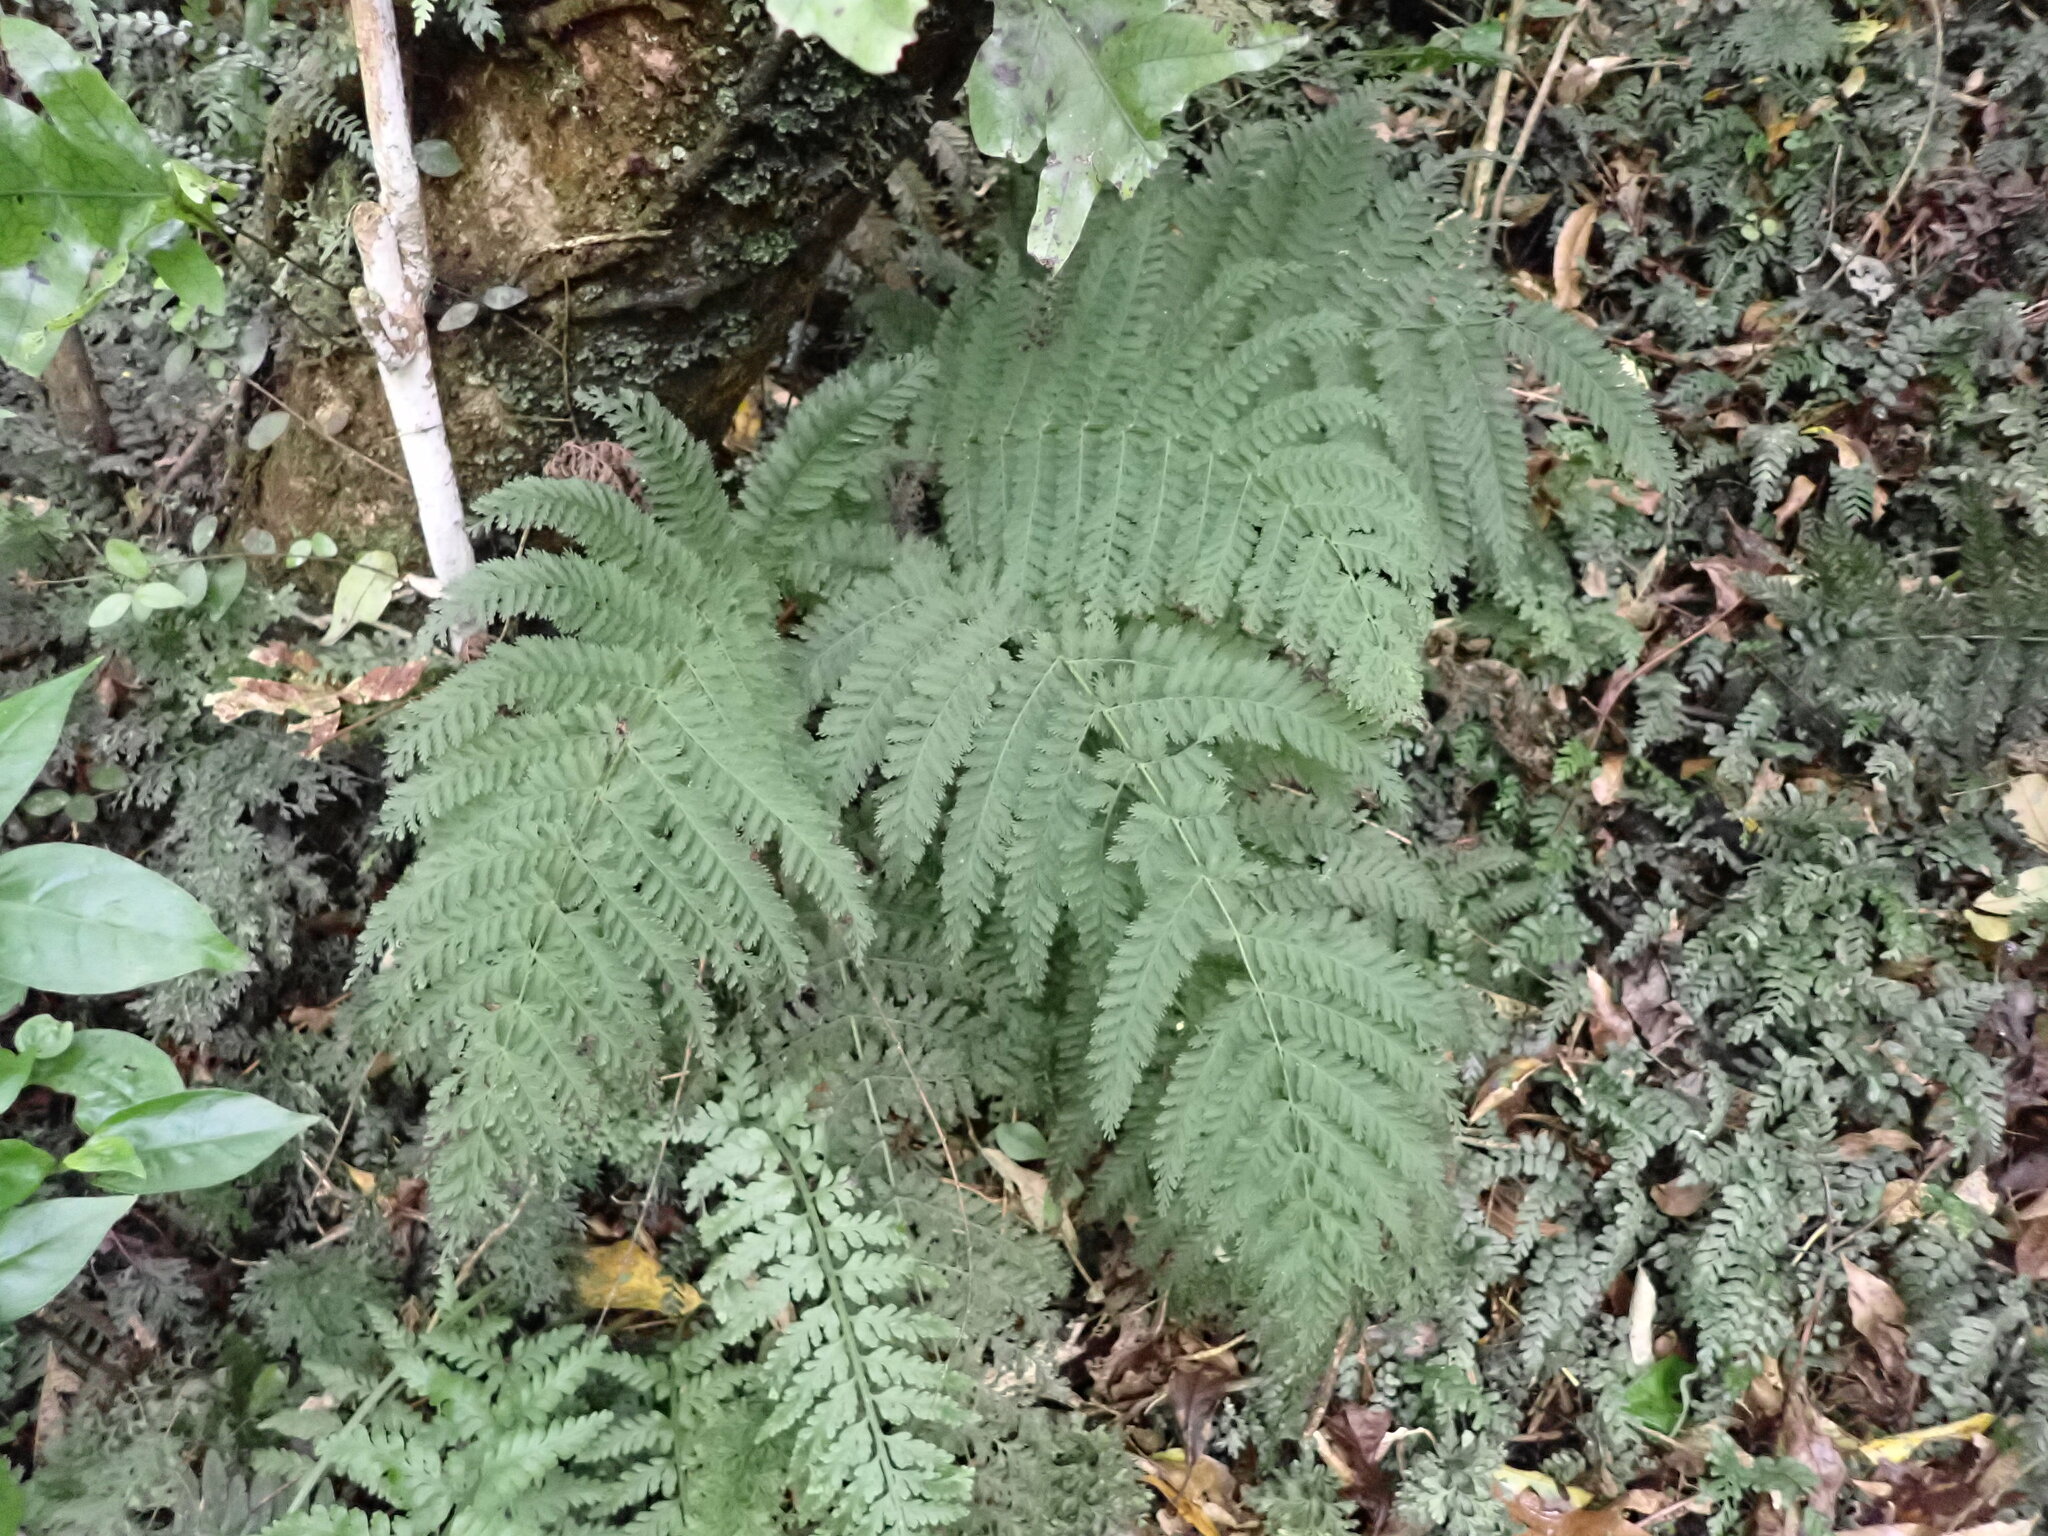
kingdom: Plantae
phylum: Tracheophyta
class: Polypodiopsida
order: Osmundales
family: Osmundaceae
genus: Leptopteris
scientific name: Leptopteris hymenophylloides
